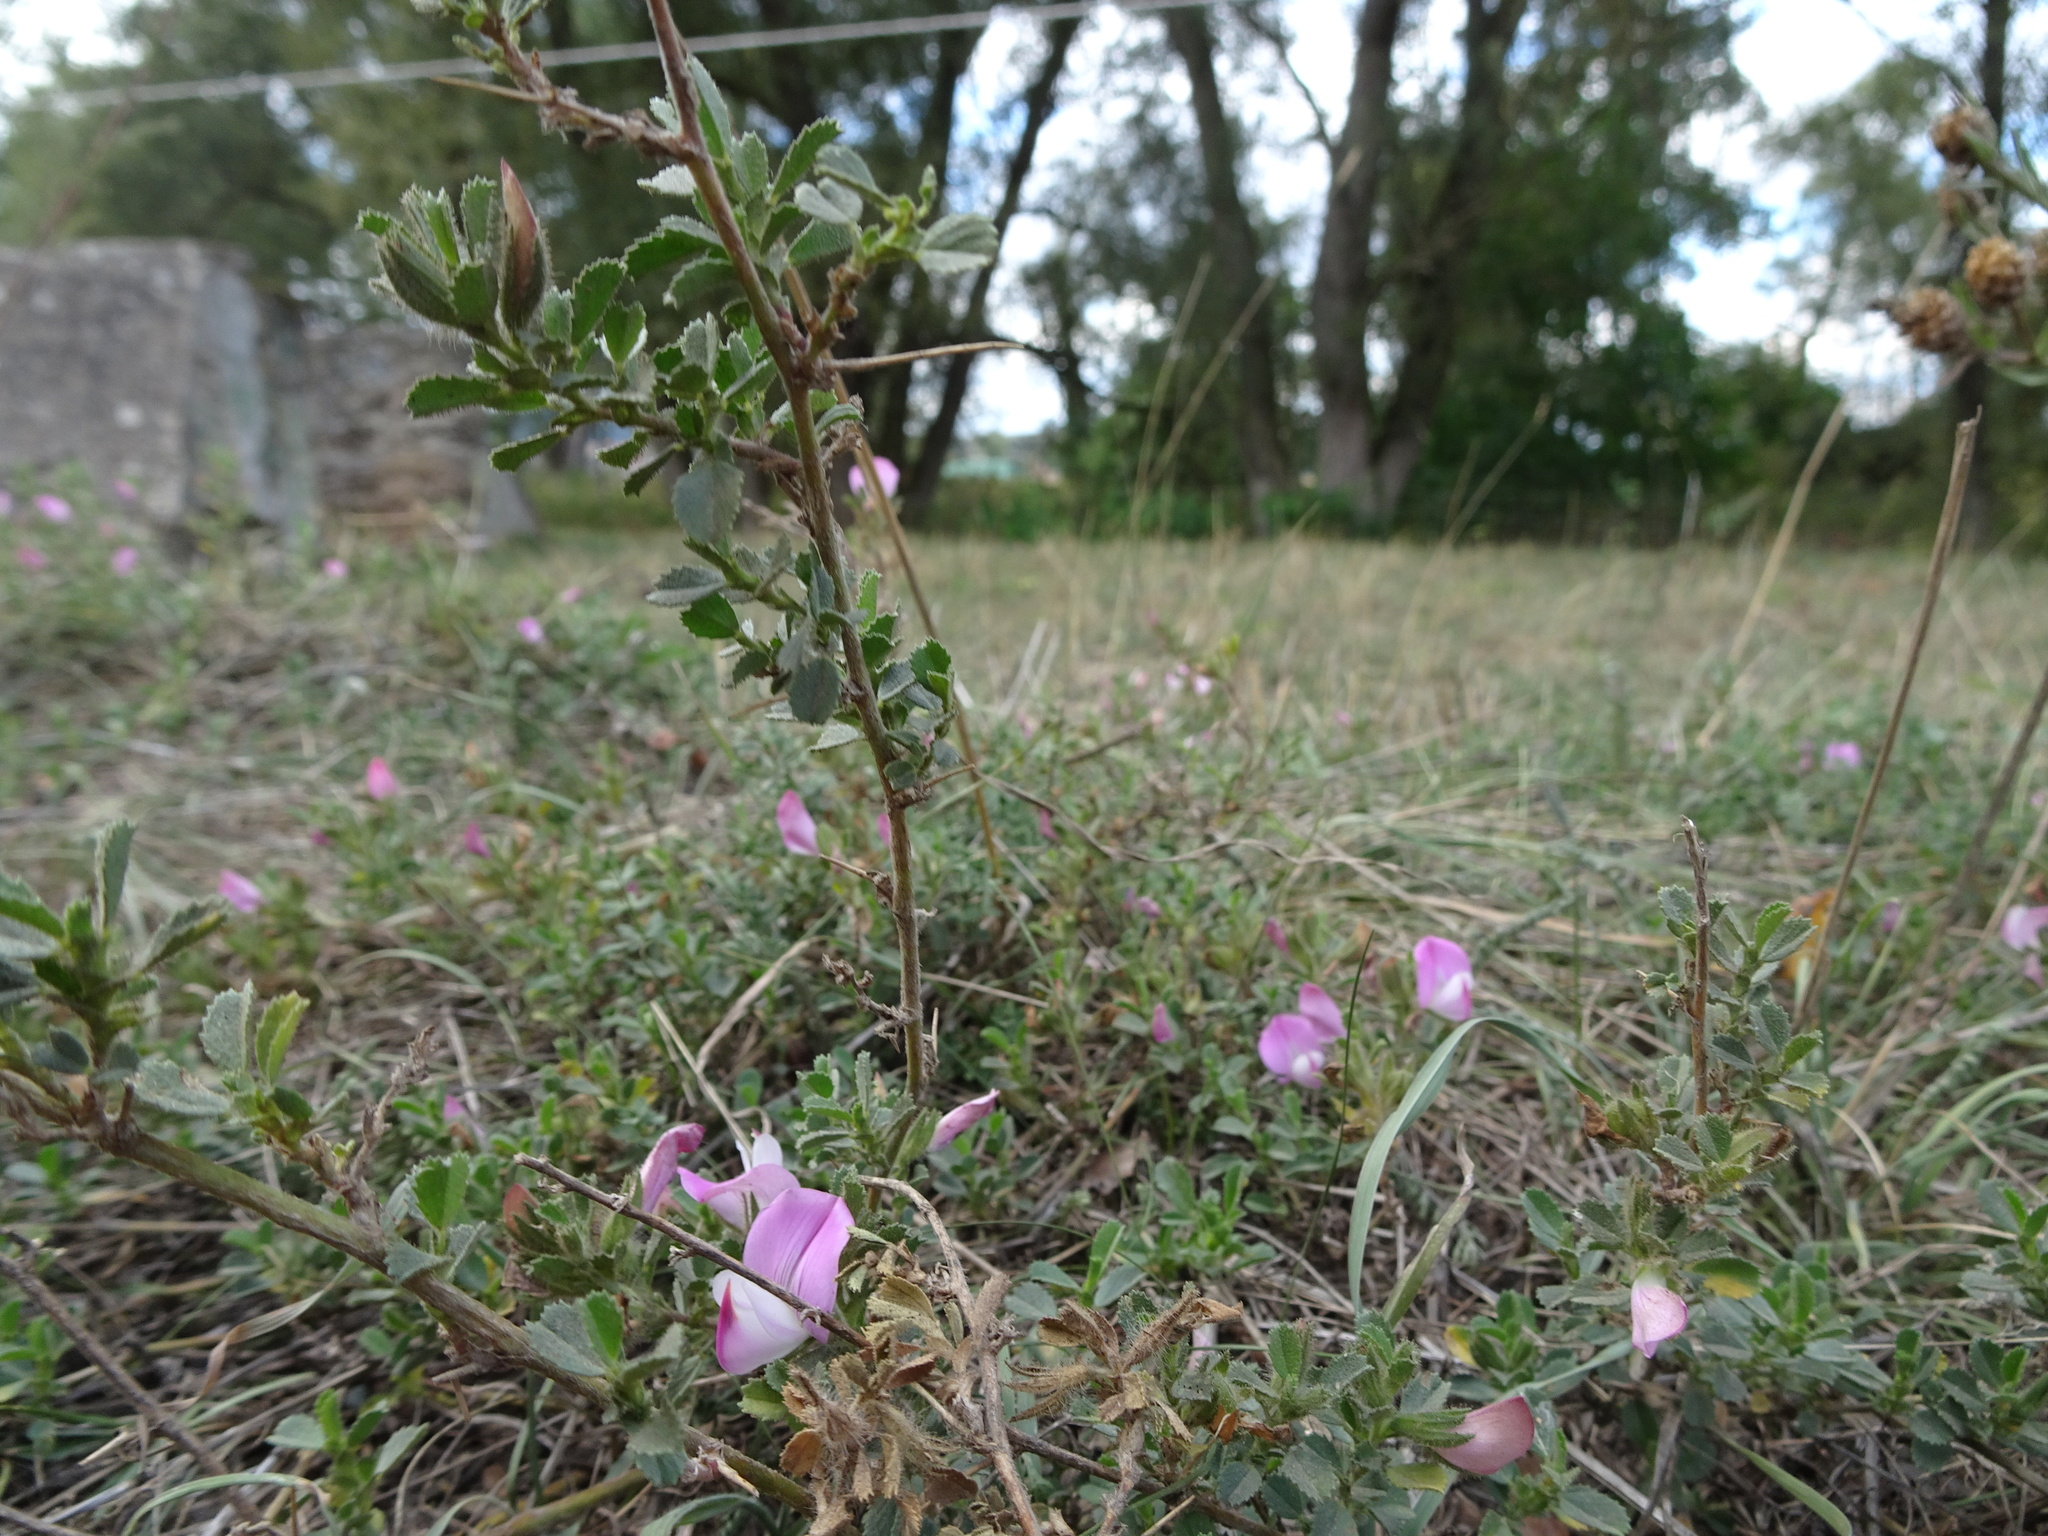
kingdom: Plantae
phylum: Tracheophyta
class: Magnoliopsida
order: Fabales
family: Fabaceae
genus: Ononis
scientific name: Ononis spinosa
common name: Spiny restharrow
